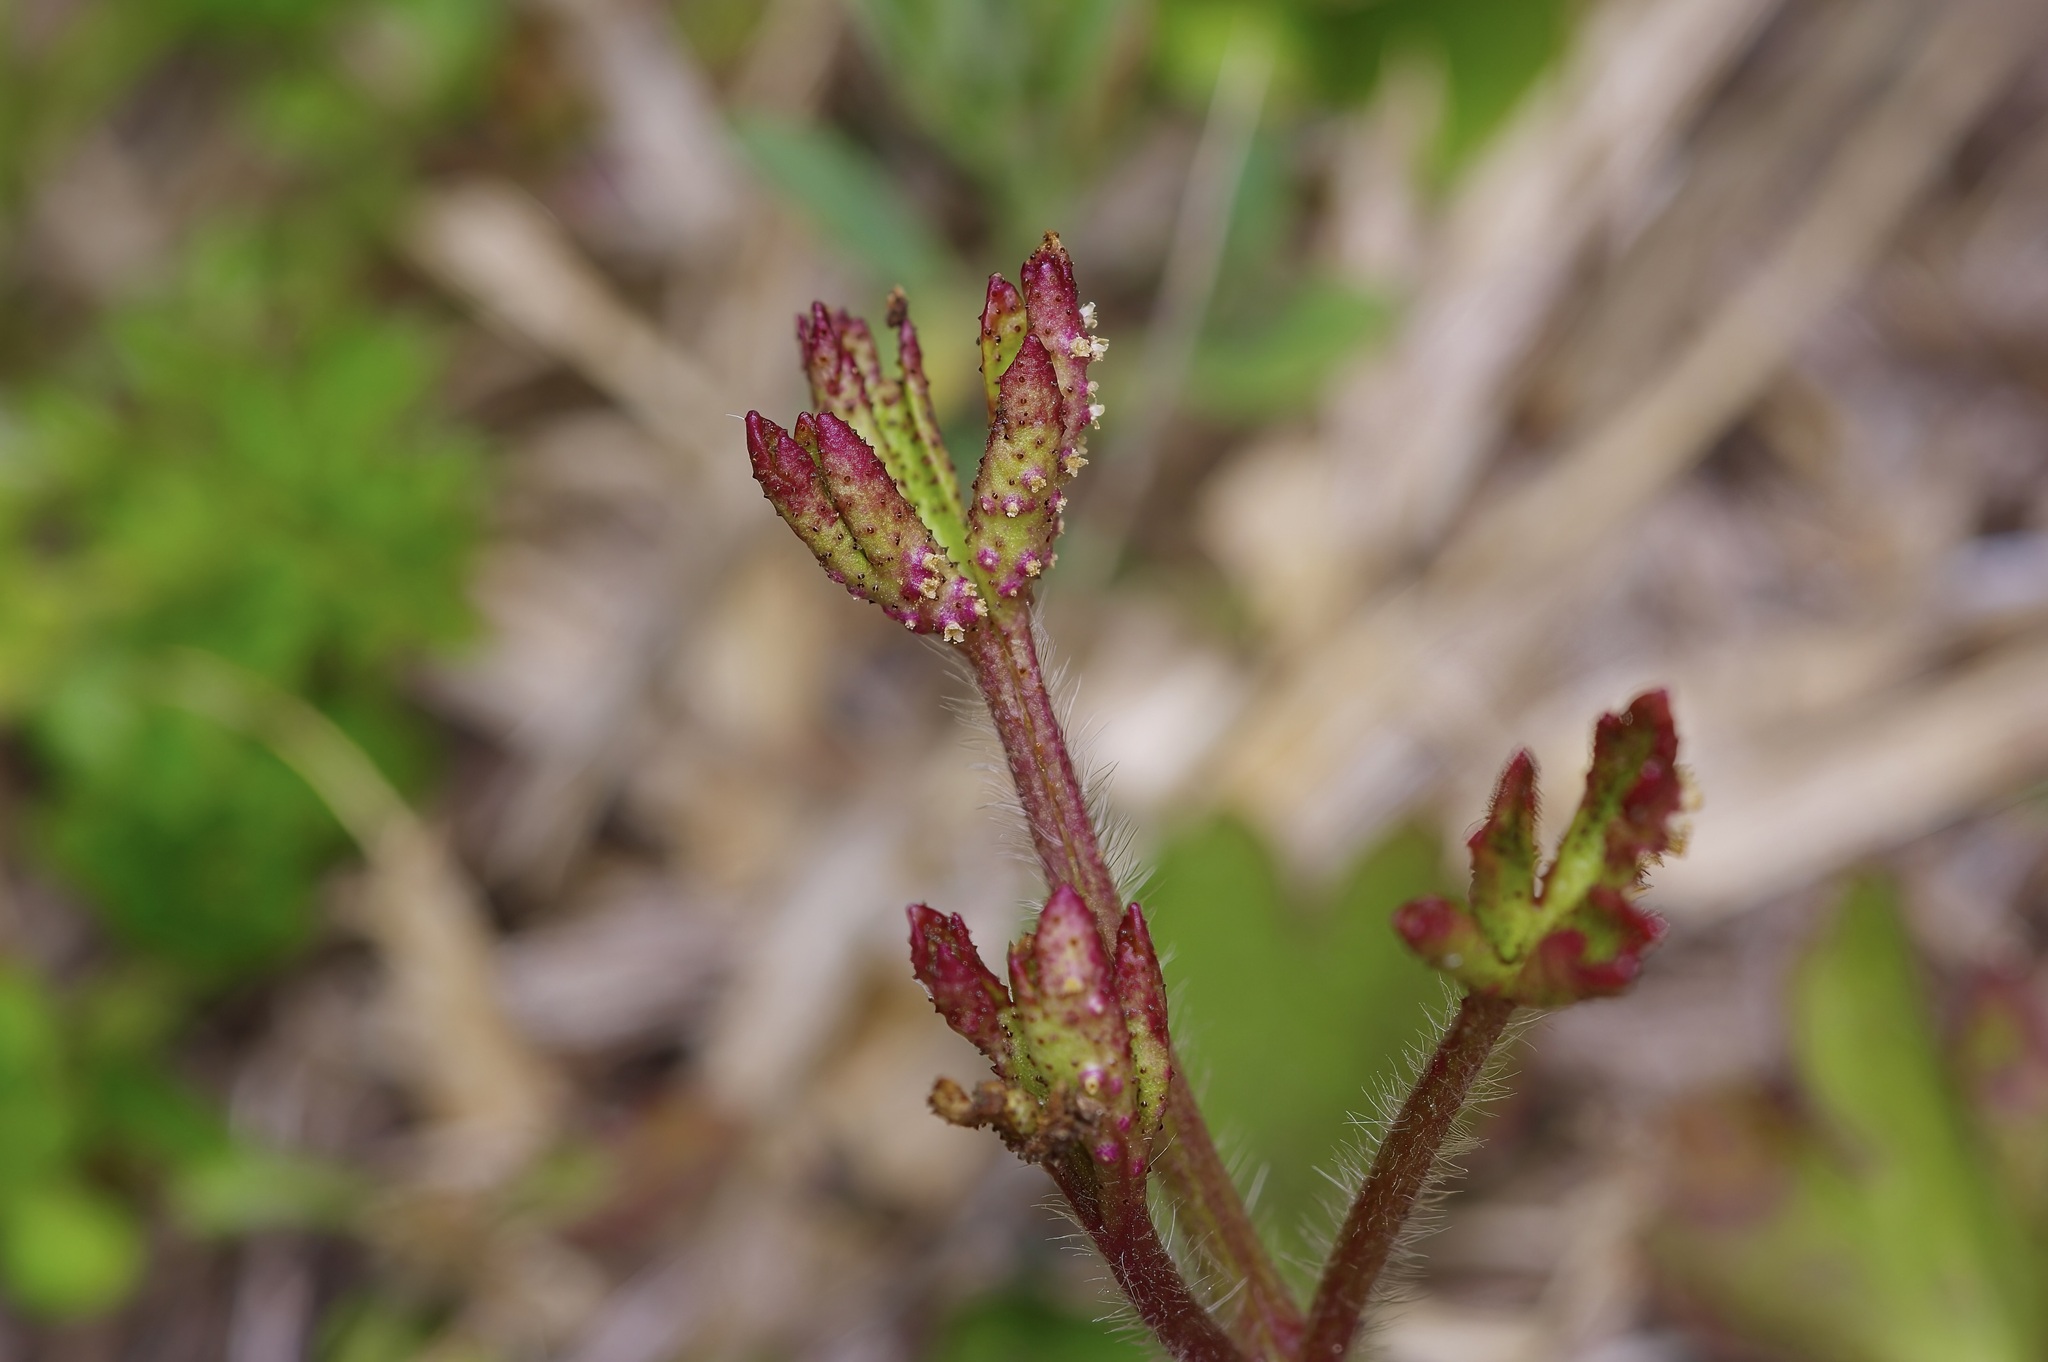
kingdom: Fungi
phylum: Basidiomycota
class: Pucciniomycetes
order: Pucciniales
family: Tranzscheliaceae
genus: Tranzschelia
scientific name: Tranzschelia cohaesa
